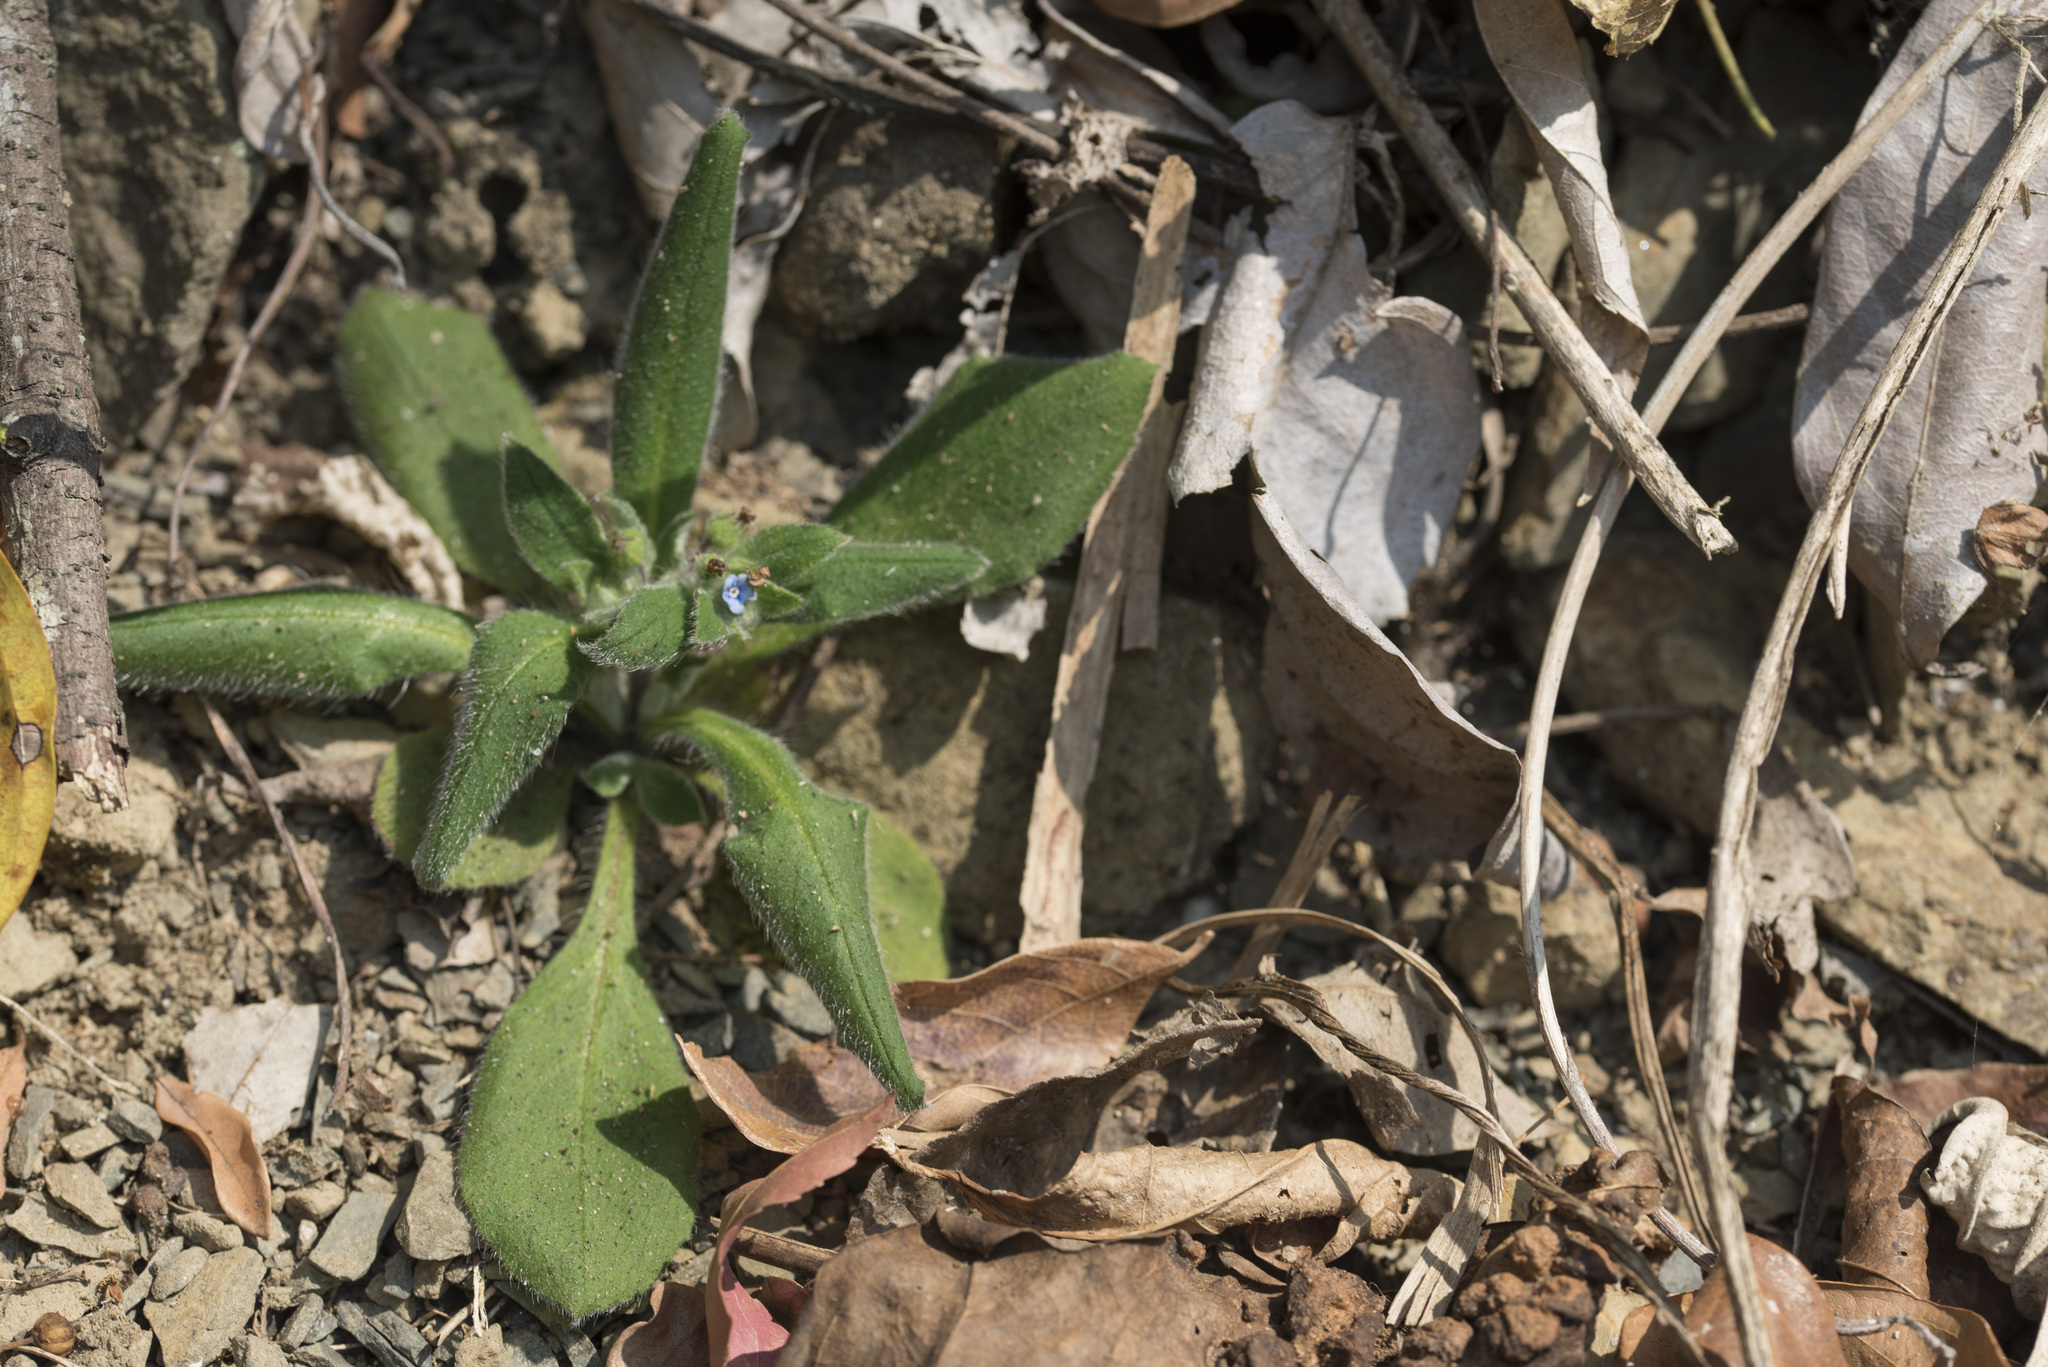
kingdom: Plantae
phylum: Tracheophyta
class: Magnoliopsida
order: Boraginales
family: Boraginaceae
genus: Thyrocarpus
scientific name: Thyrocarpus sampsonii
